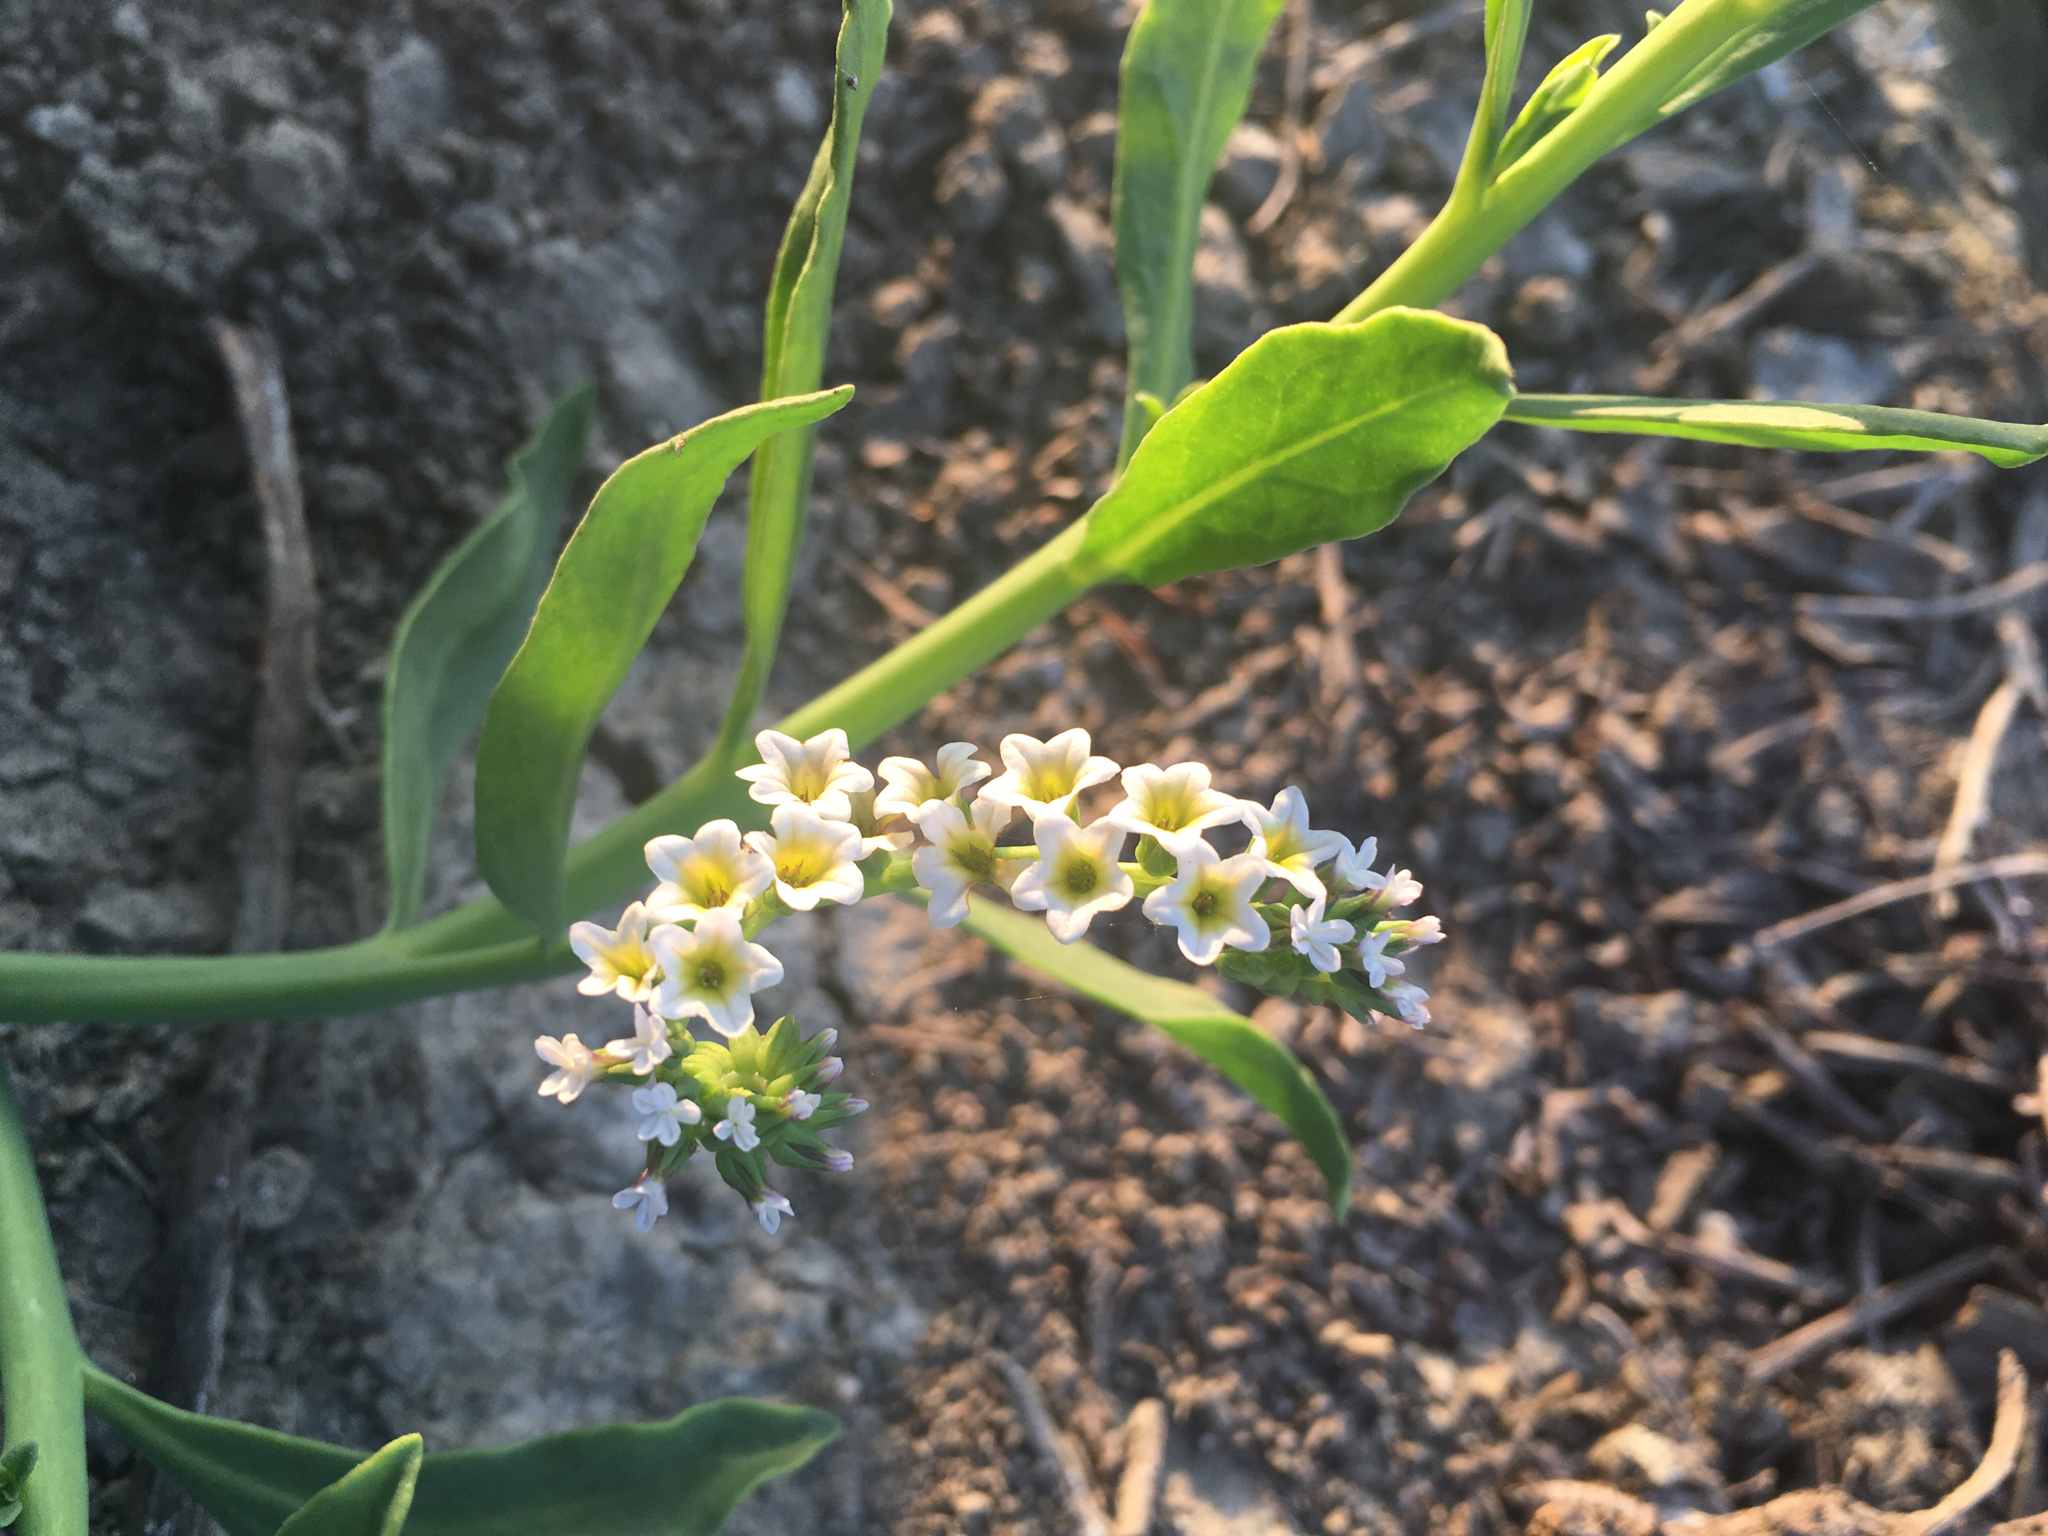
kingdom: Plantae
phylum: Tracheophyta
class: Magnoliopsida
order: Boraginales
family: Heliotropiaceae
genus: Heliotropium
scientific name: Heliotropium curassavicum
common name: Seaside heliotrope
